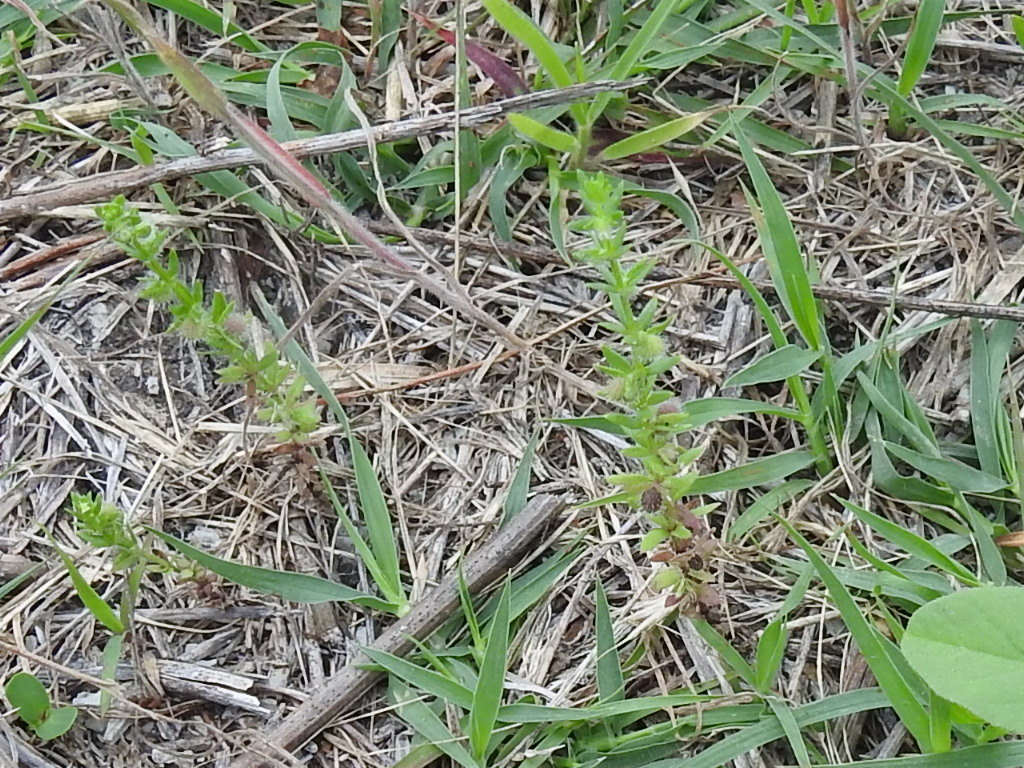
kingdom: Plantae
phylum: Tracheophyta
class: Magnoliopsida
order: Gentianales
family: Rubiaceae
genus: Galium
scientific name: Galium virgatum
